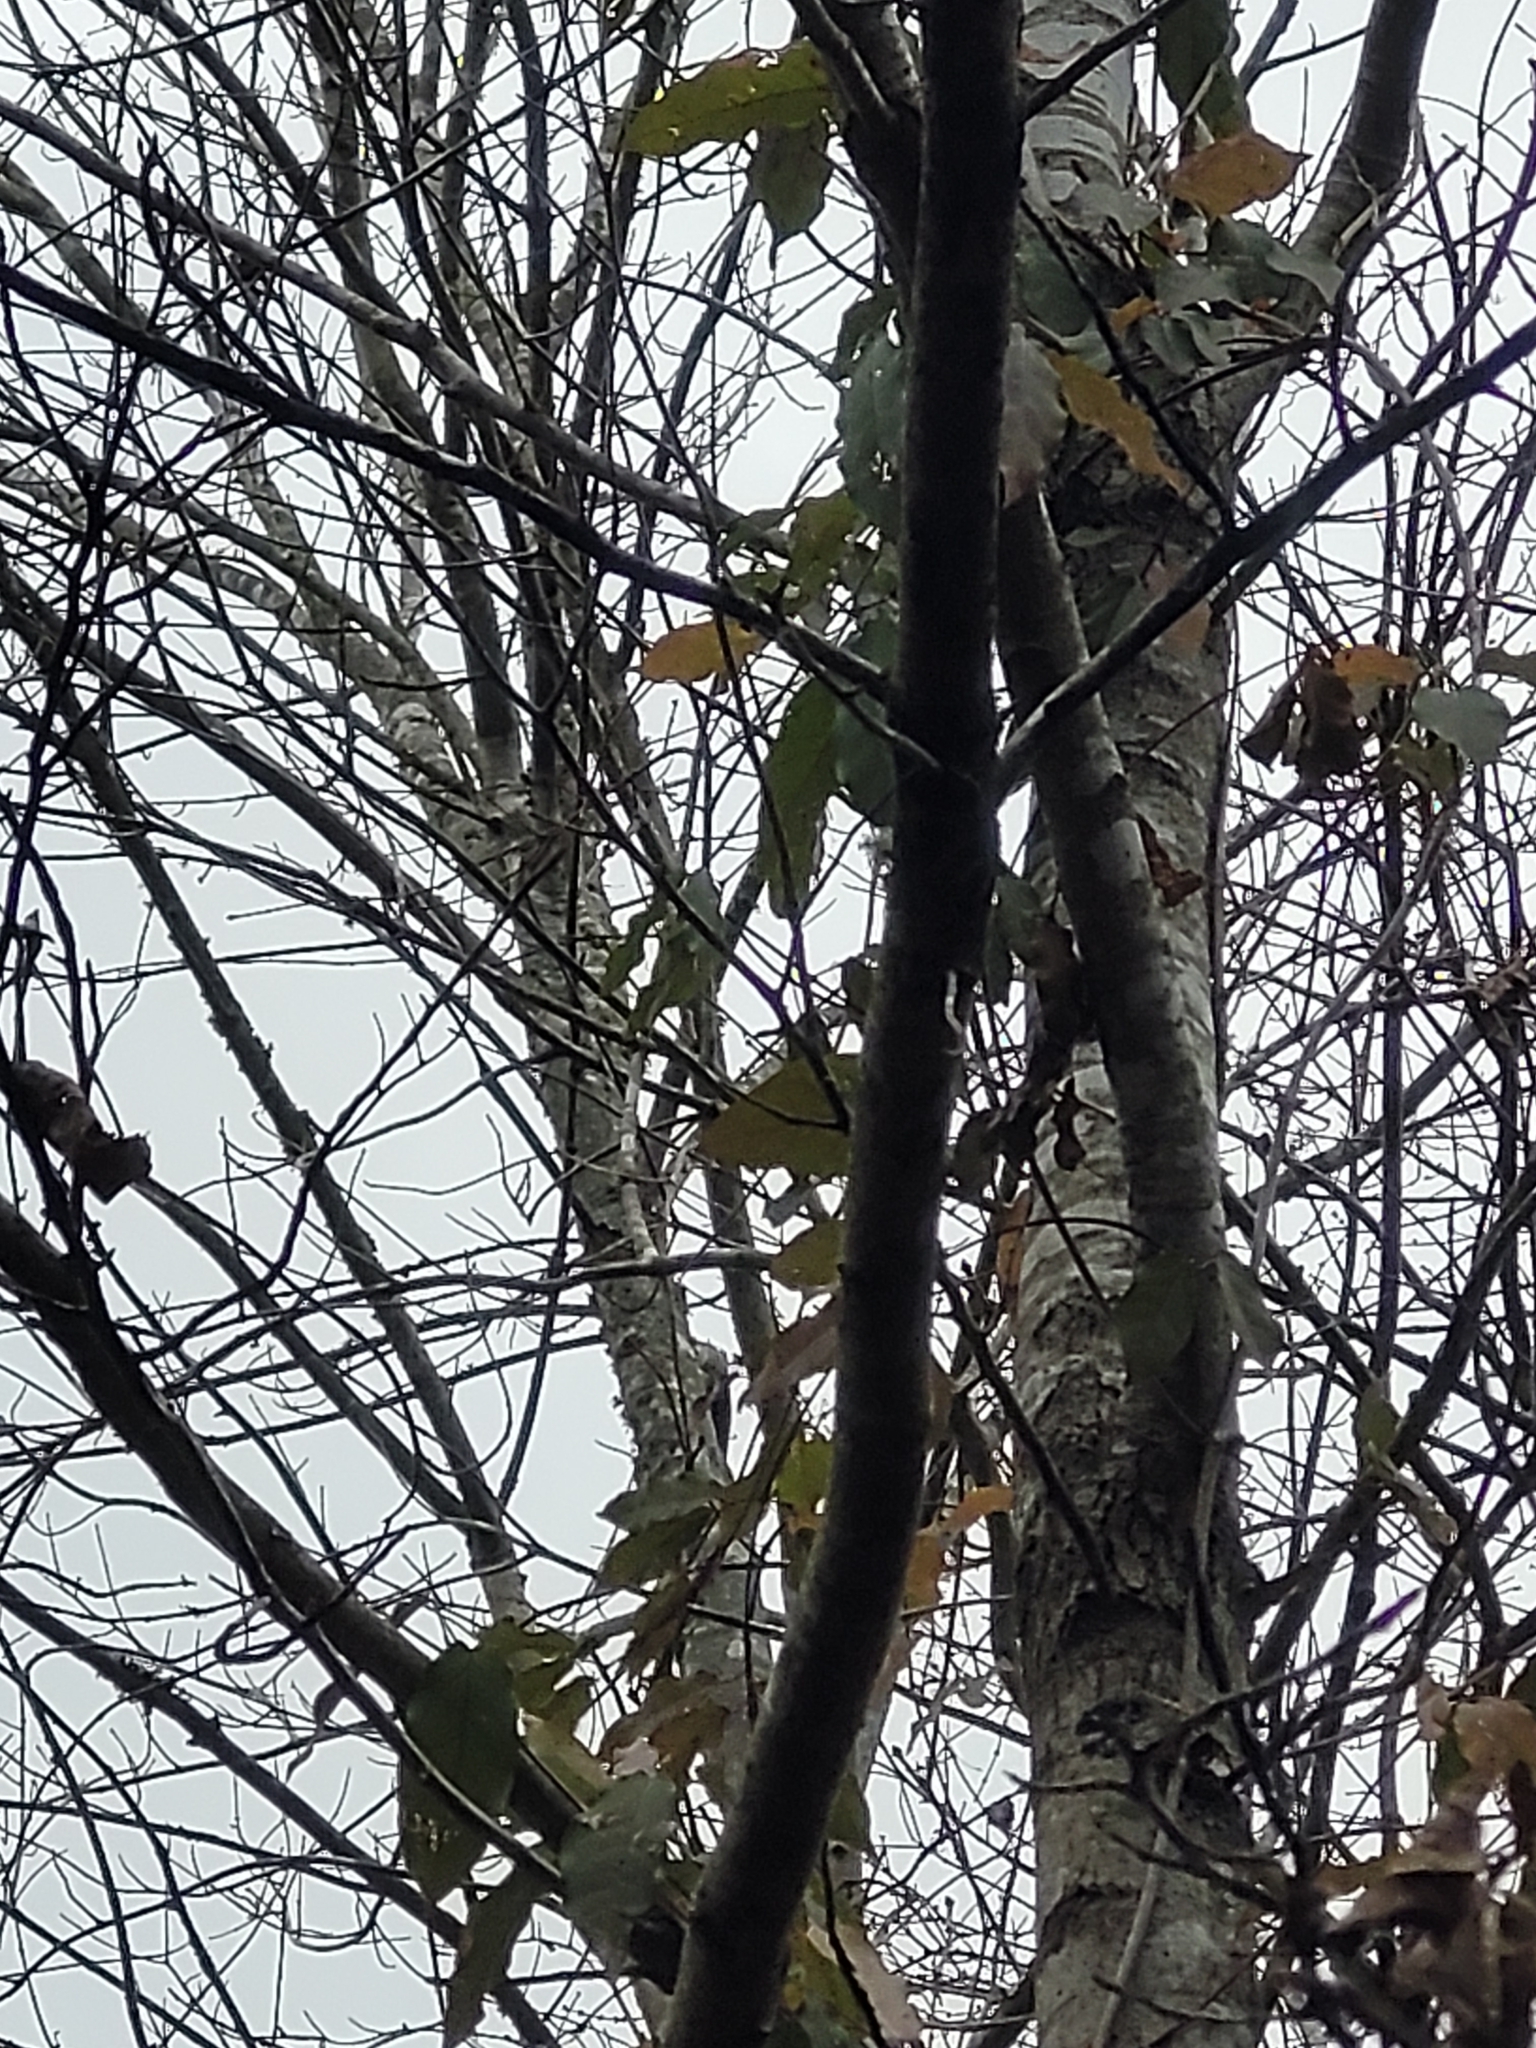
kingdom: Plantae
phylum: Tracheophyta
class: Magnoliopsida
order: Lamiales
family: Bignoniaceae
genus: Bignonia
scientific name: Bignonia capreolata
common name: Crossvine
